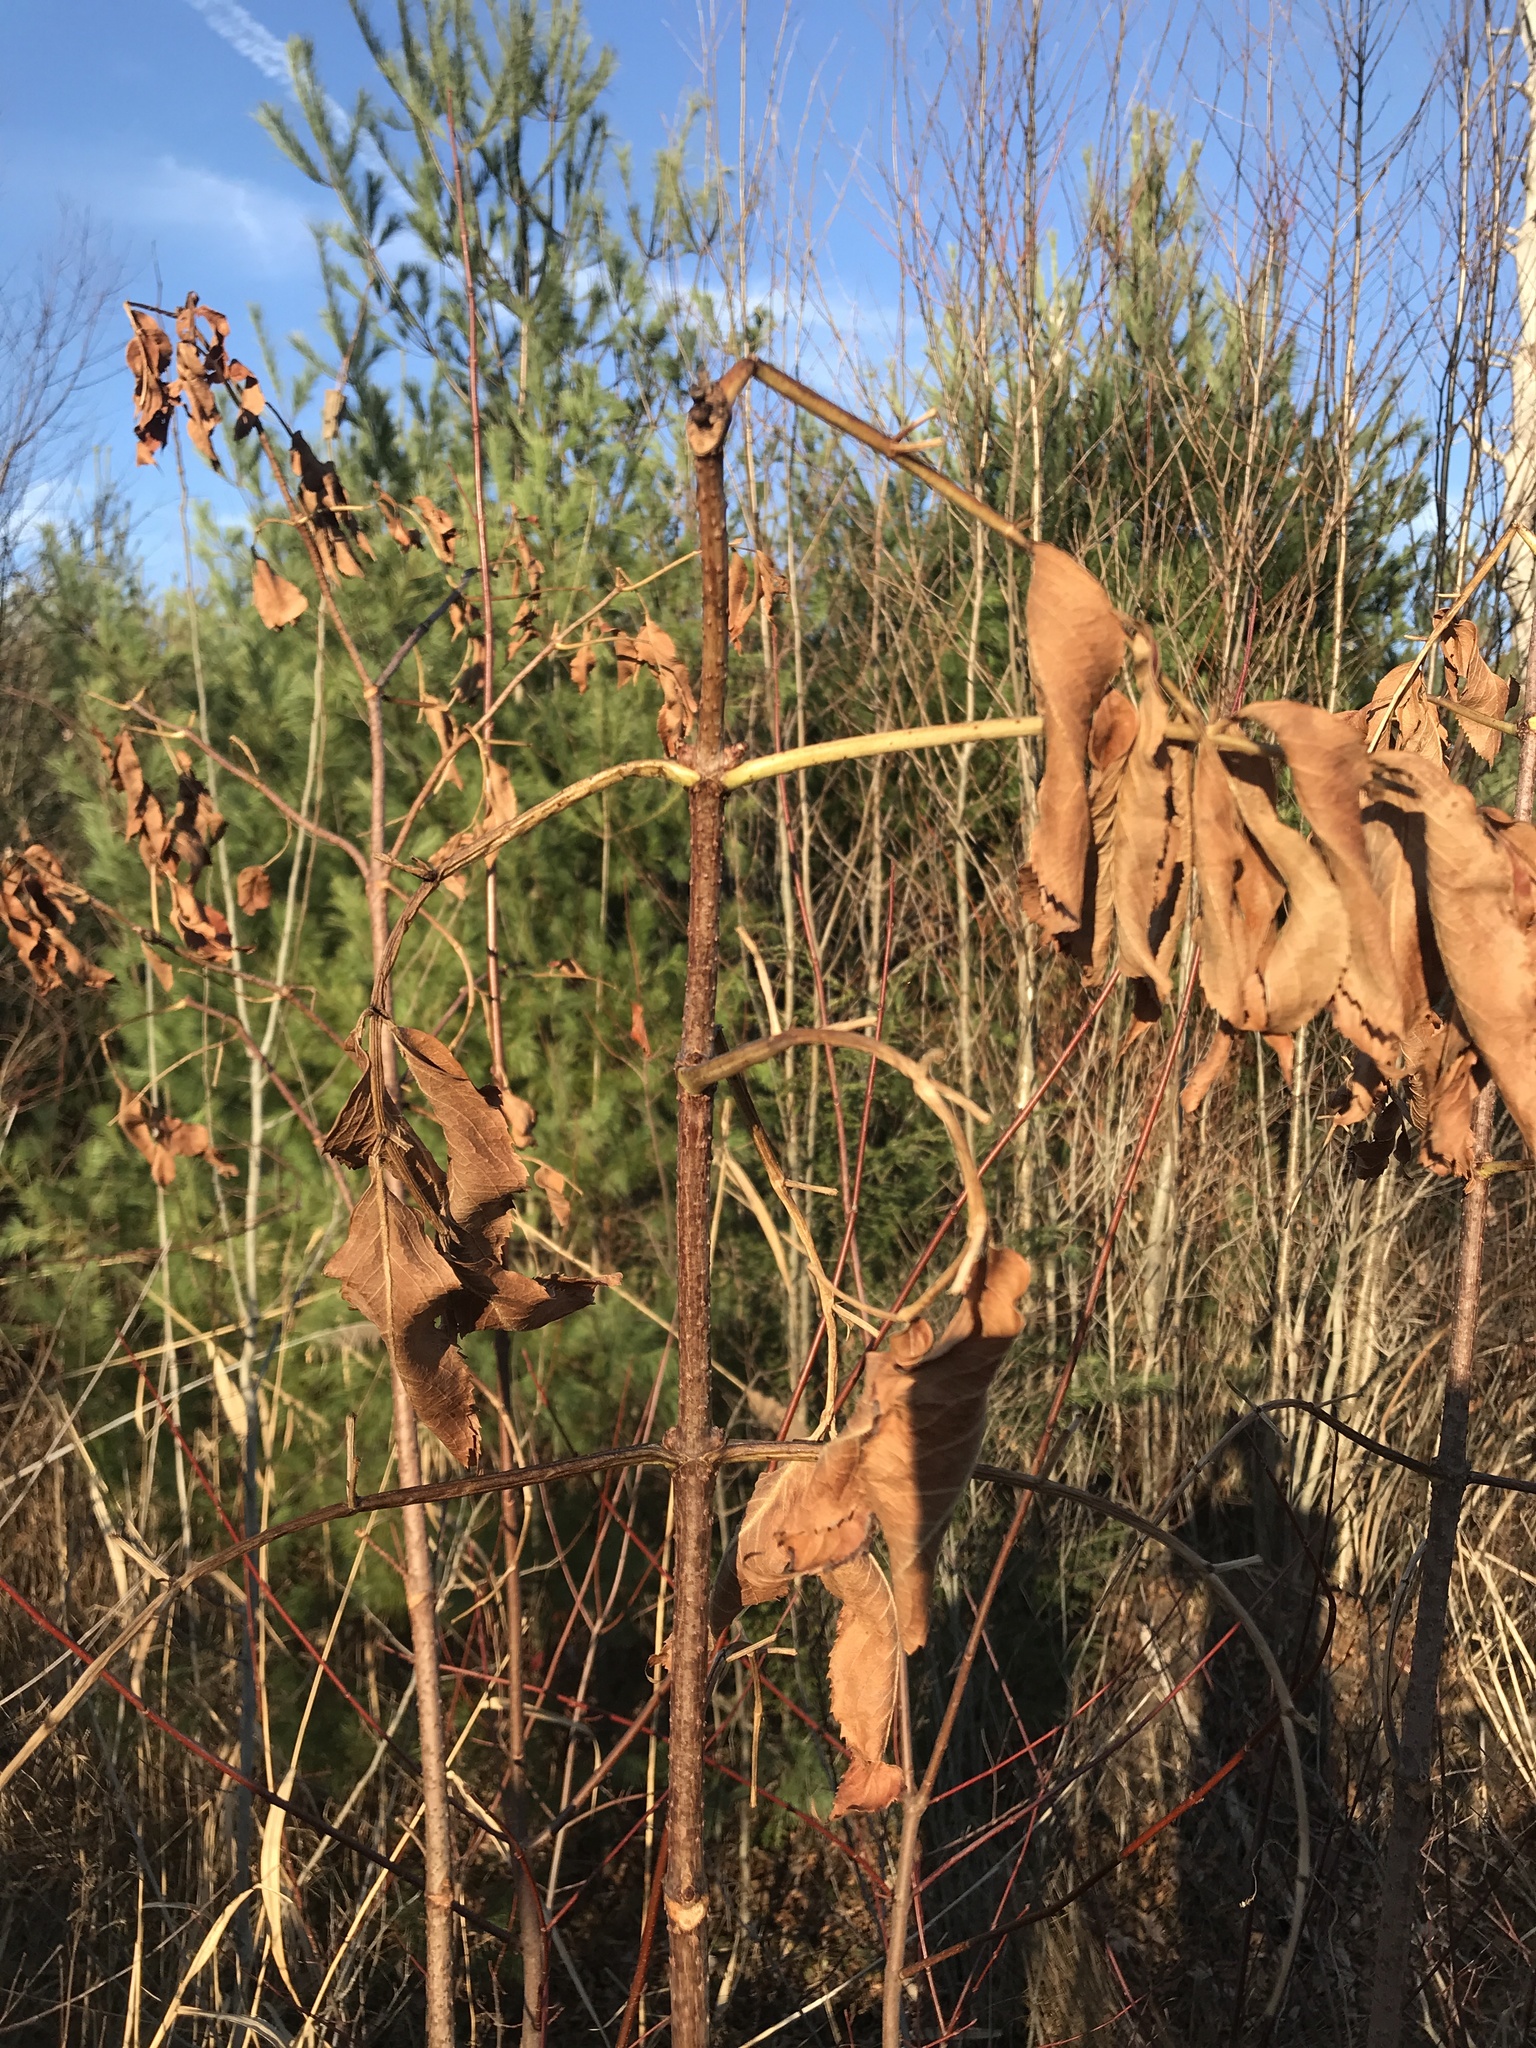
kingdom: Plantae
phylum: Tracheophyta
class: Magnoliopsida
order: Dipsacales
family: Viburnaceae
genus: Sambucus
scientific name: Sambucus canadensis
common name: American elder
